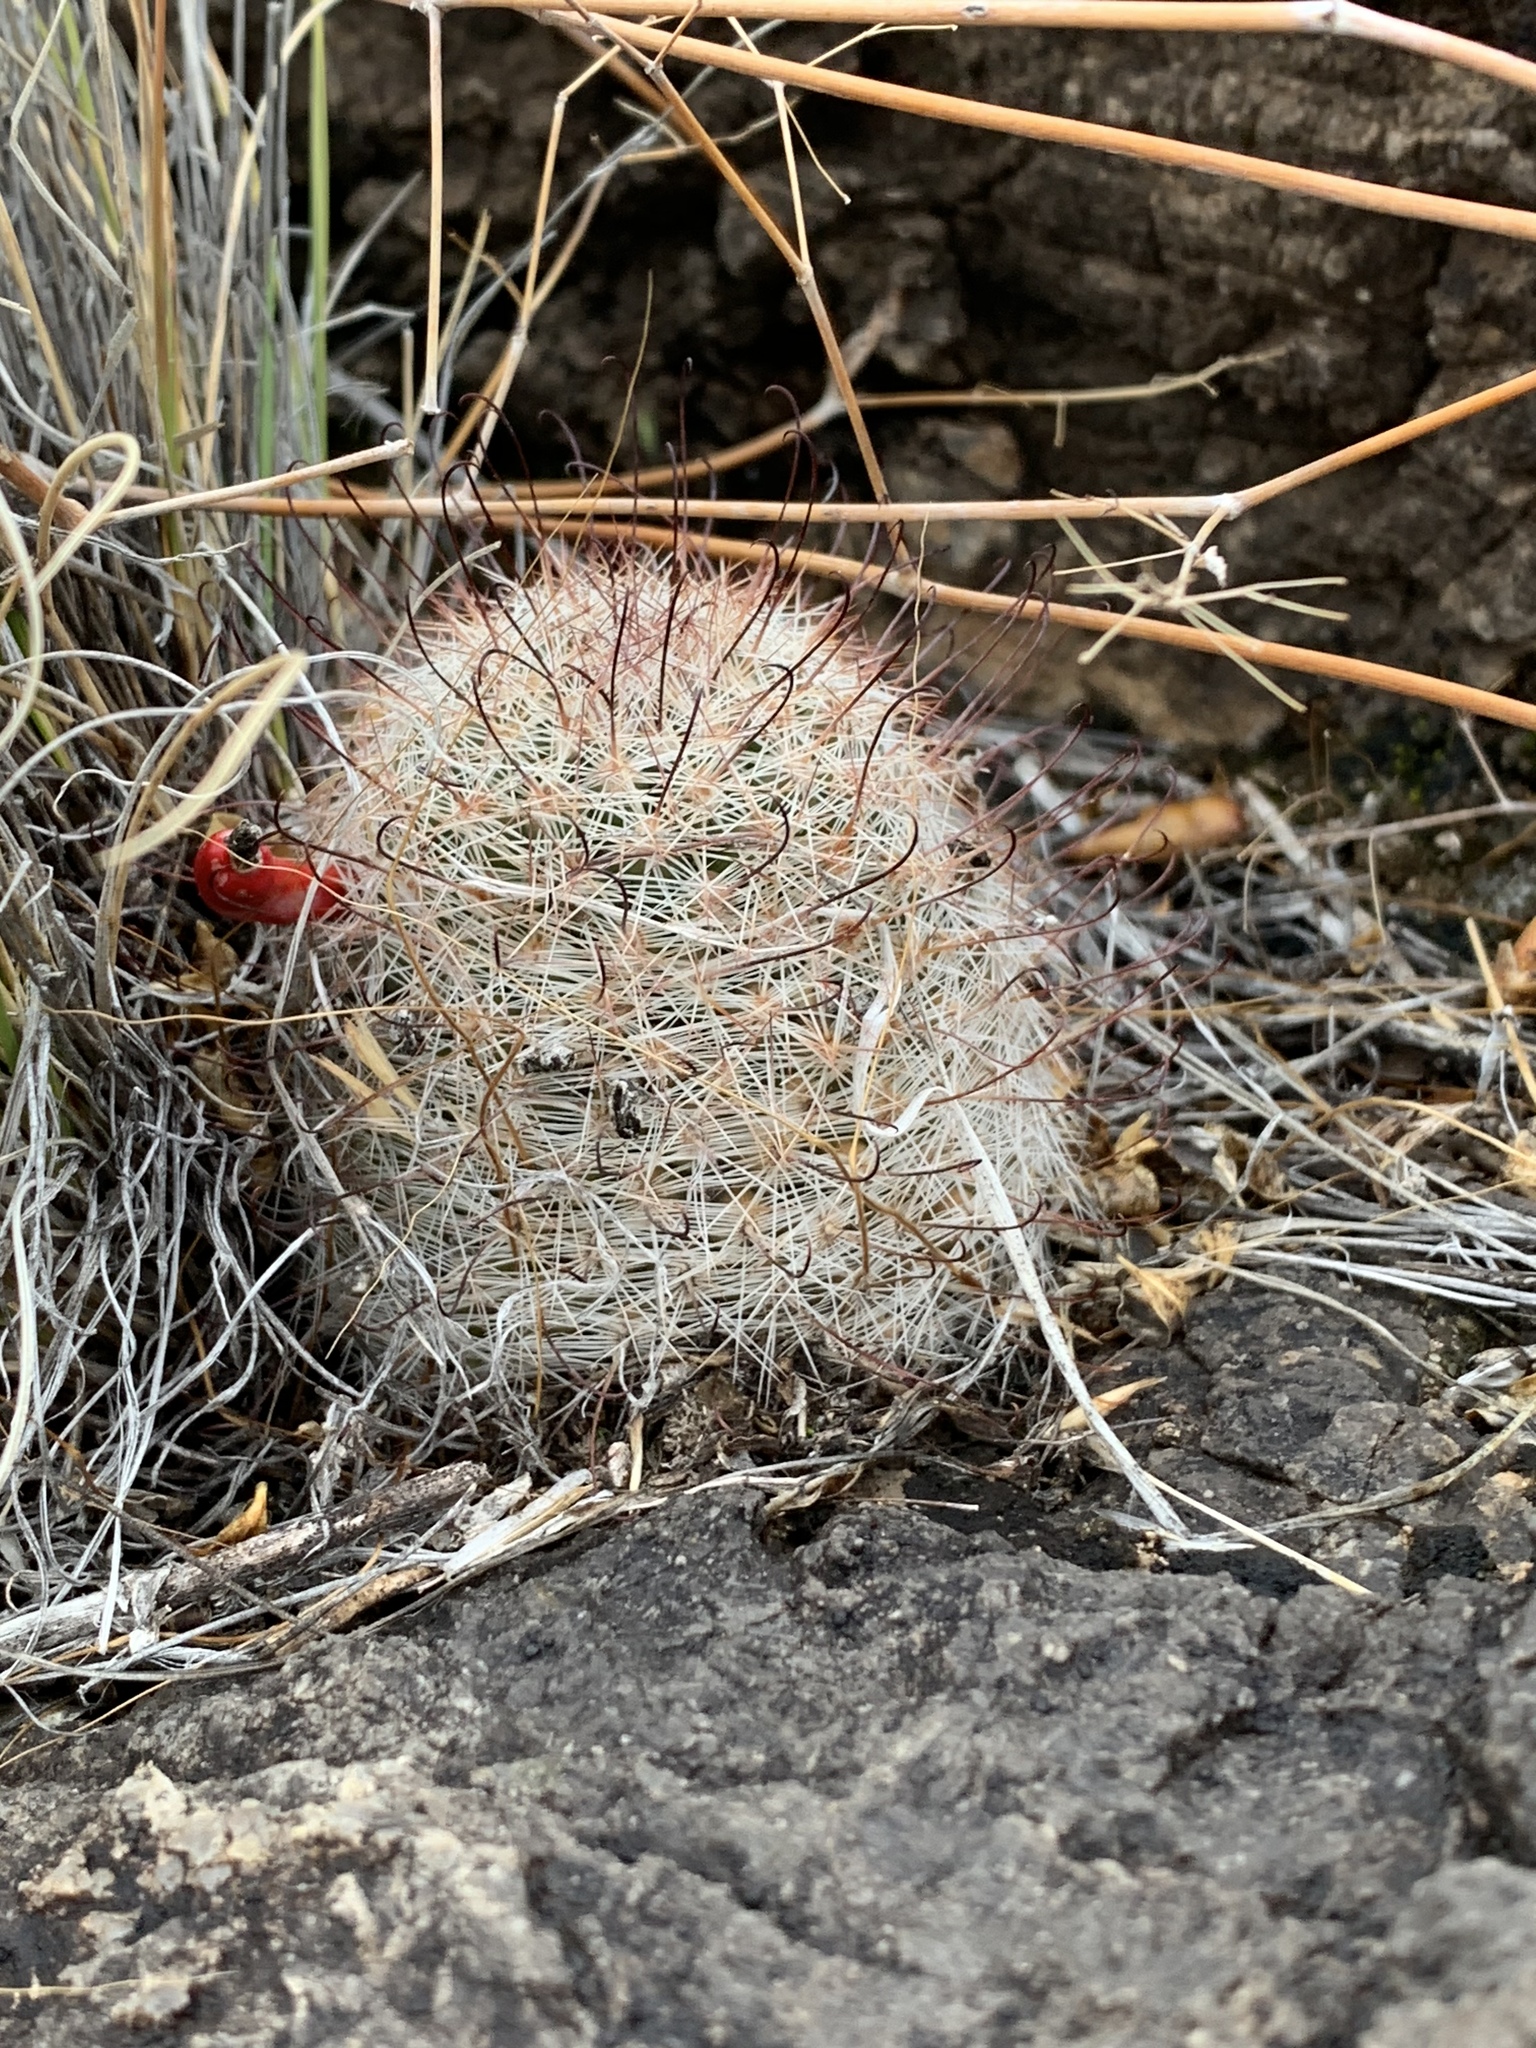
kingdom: Plantae
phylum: Tracheophyta
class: Magnoliopsida
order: Caryophyllales
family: Cactaceae
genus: Cochemiea
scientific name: Cochemiea grahamii
